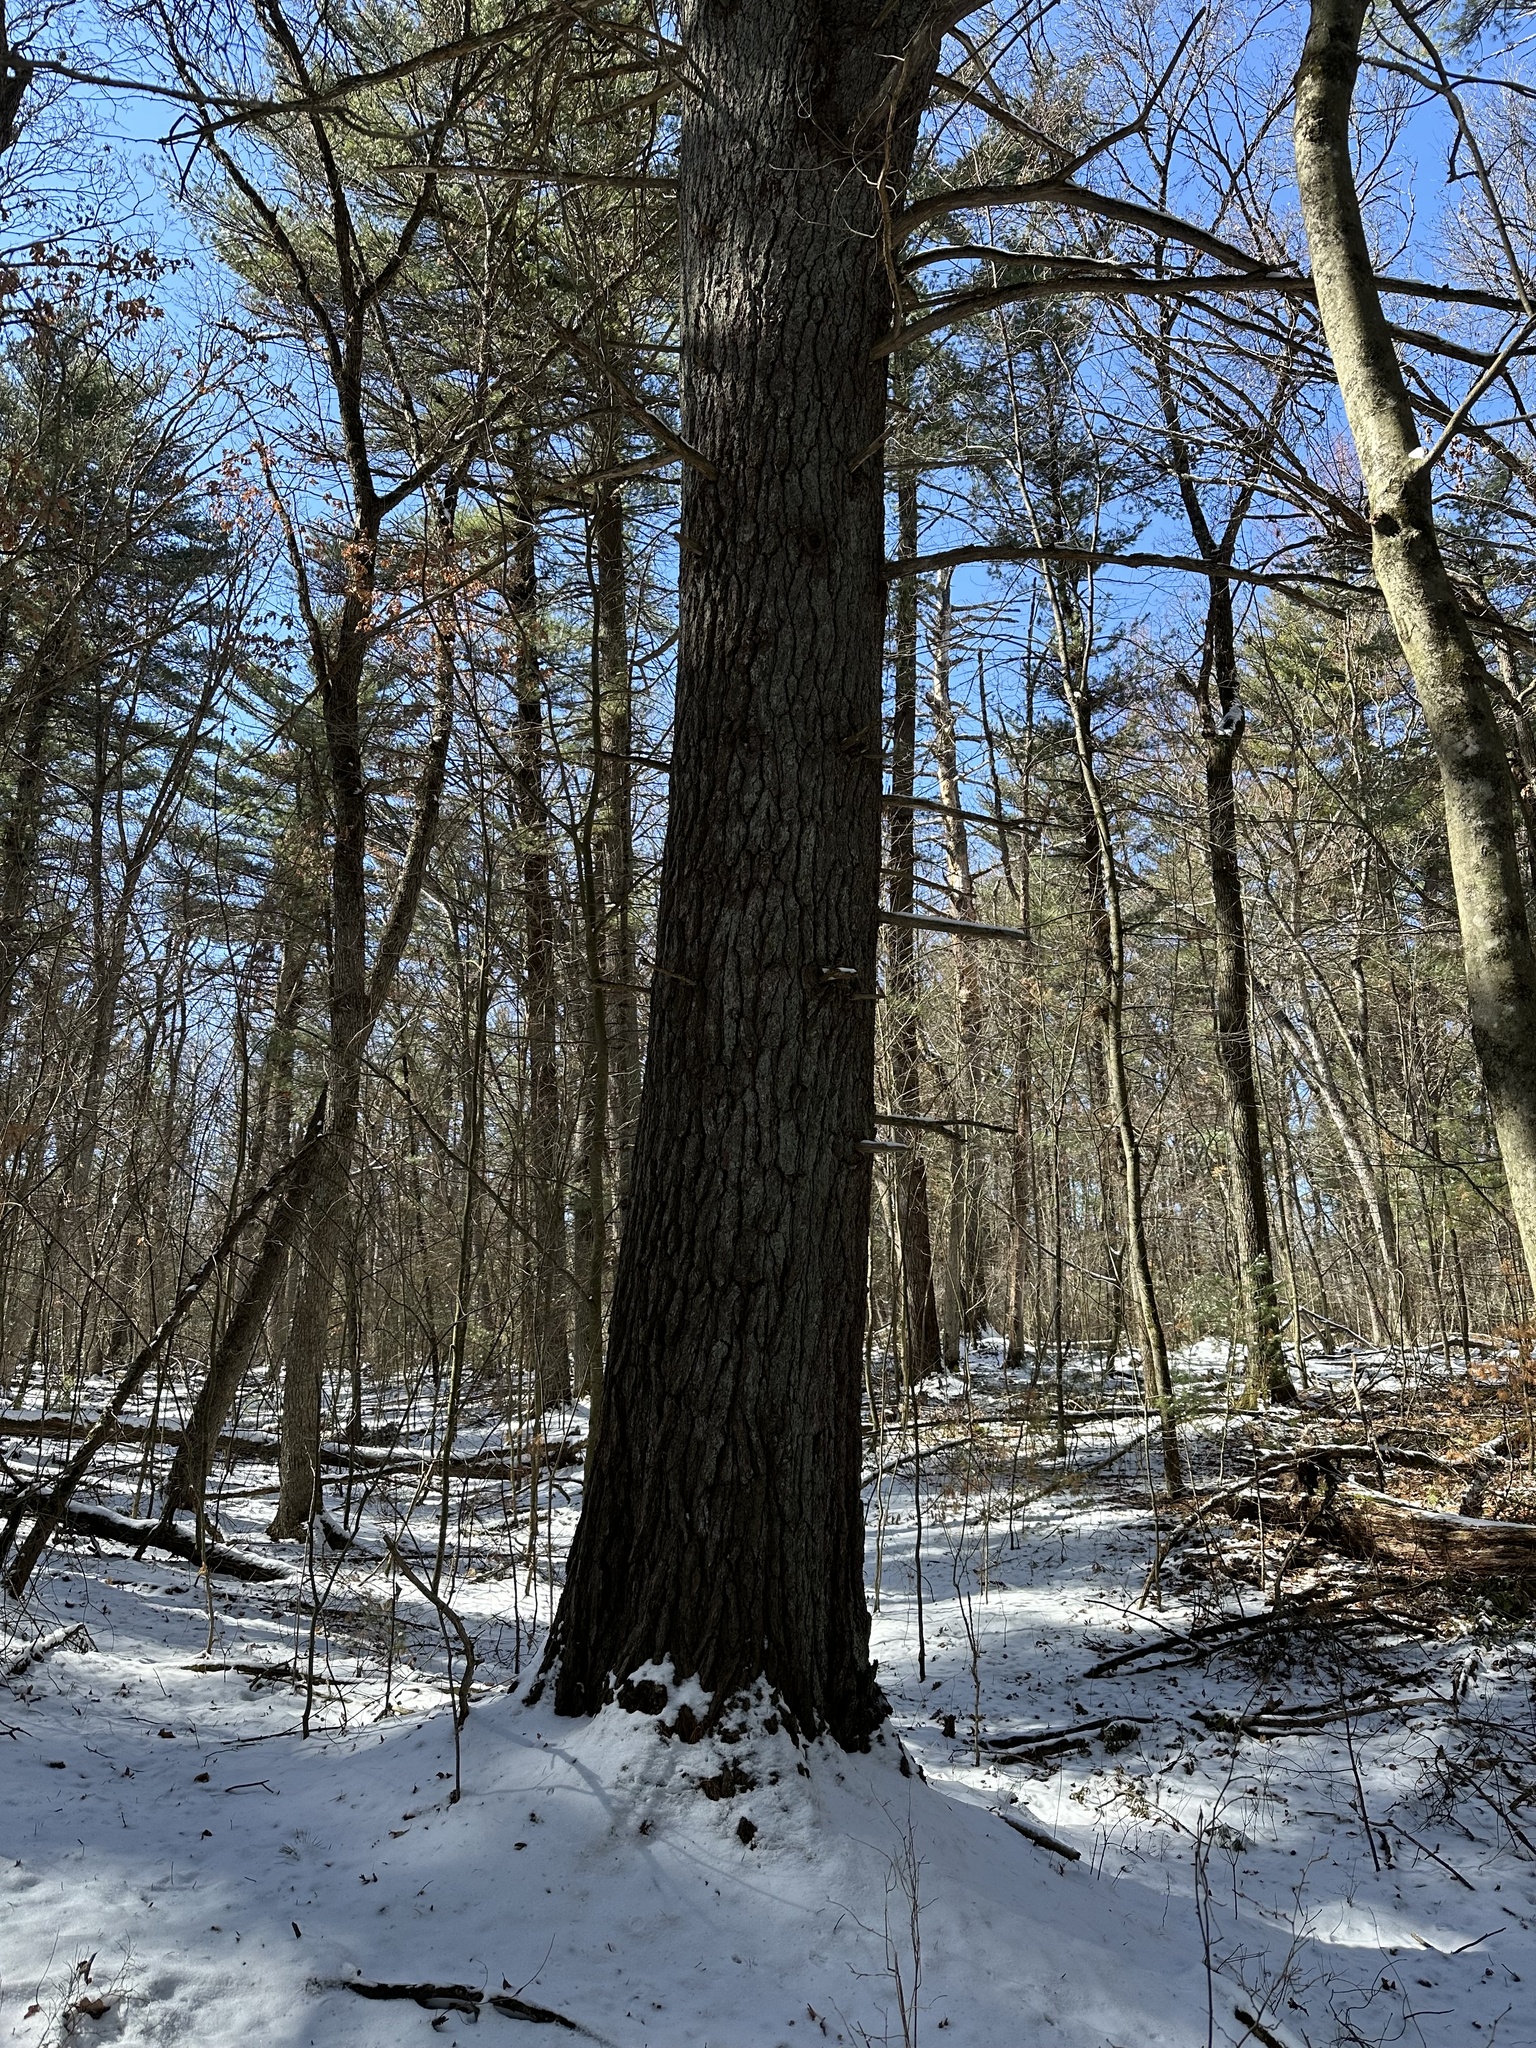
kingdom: Plantae
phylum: Tracheophyta
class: Pinopsida
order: Pinales
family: Pinaceae
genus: Pinus
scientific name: Pinus strobus
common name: Weymouth pine
